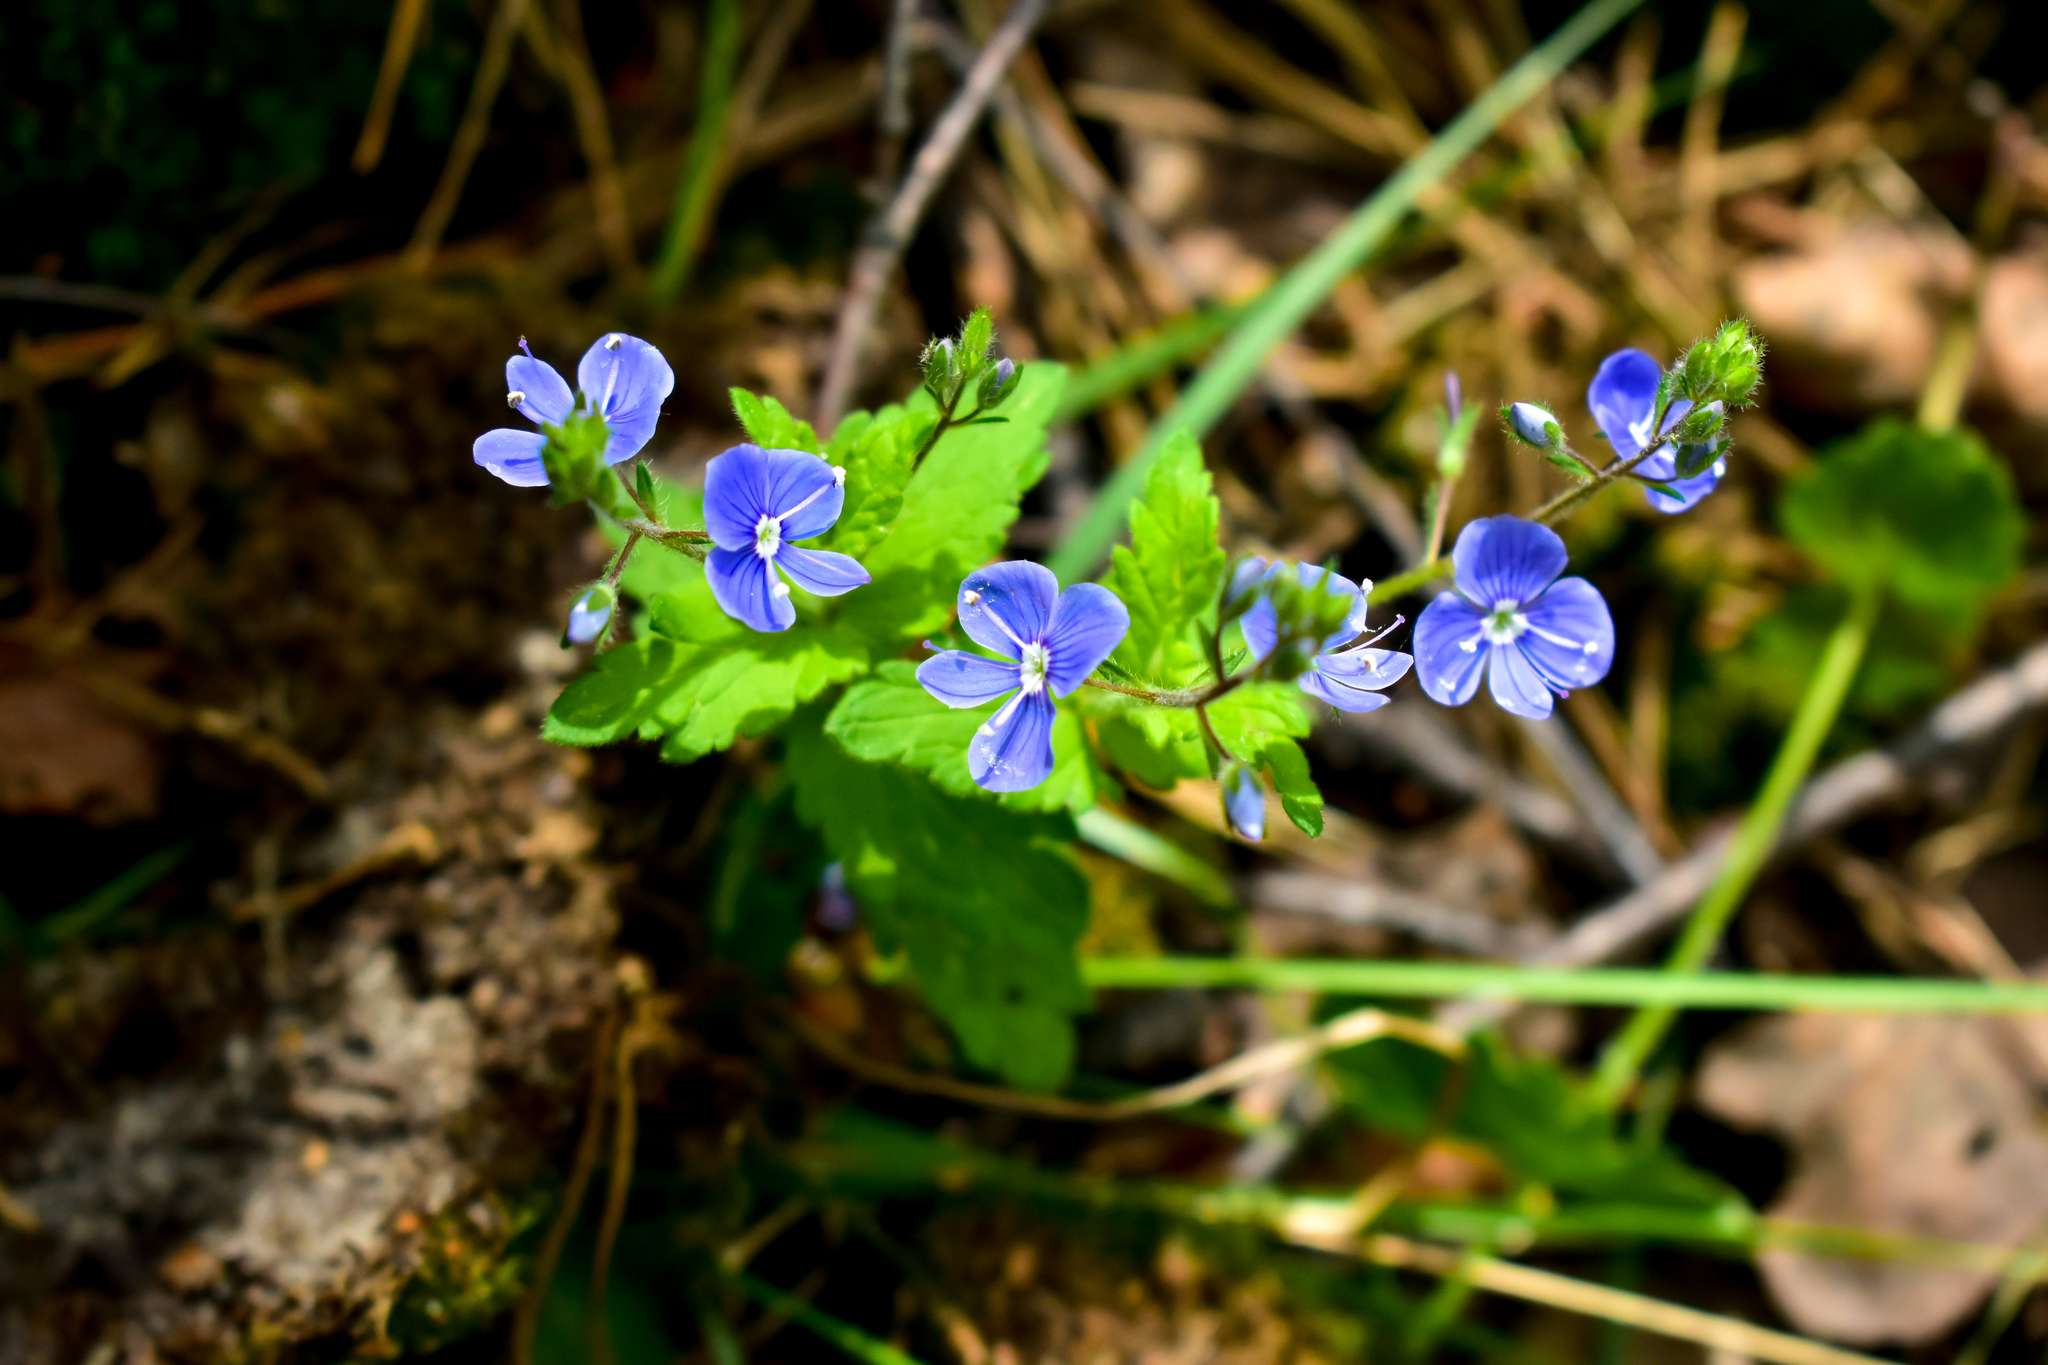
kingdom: Plantae
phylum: Tracheophyta
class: Magnoliopsida
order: Lamiales
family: Plantaginaceae
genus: Veronica
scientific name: Veronica chamaedrys
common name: Germander speedwell
